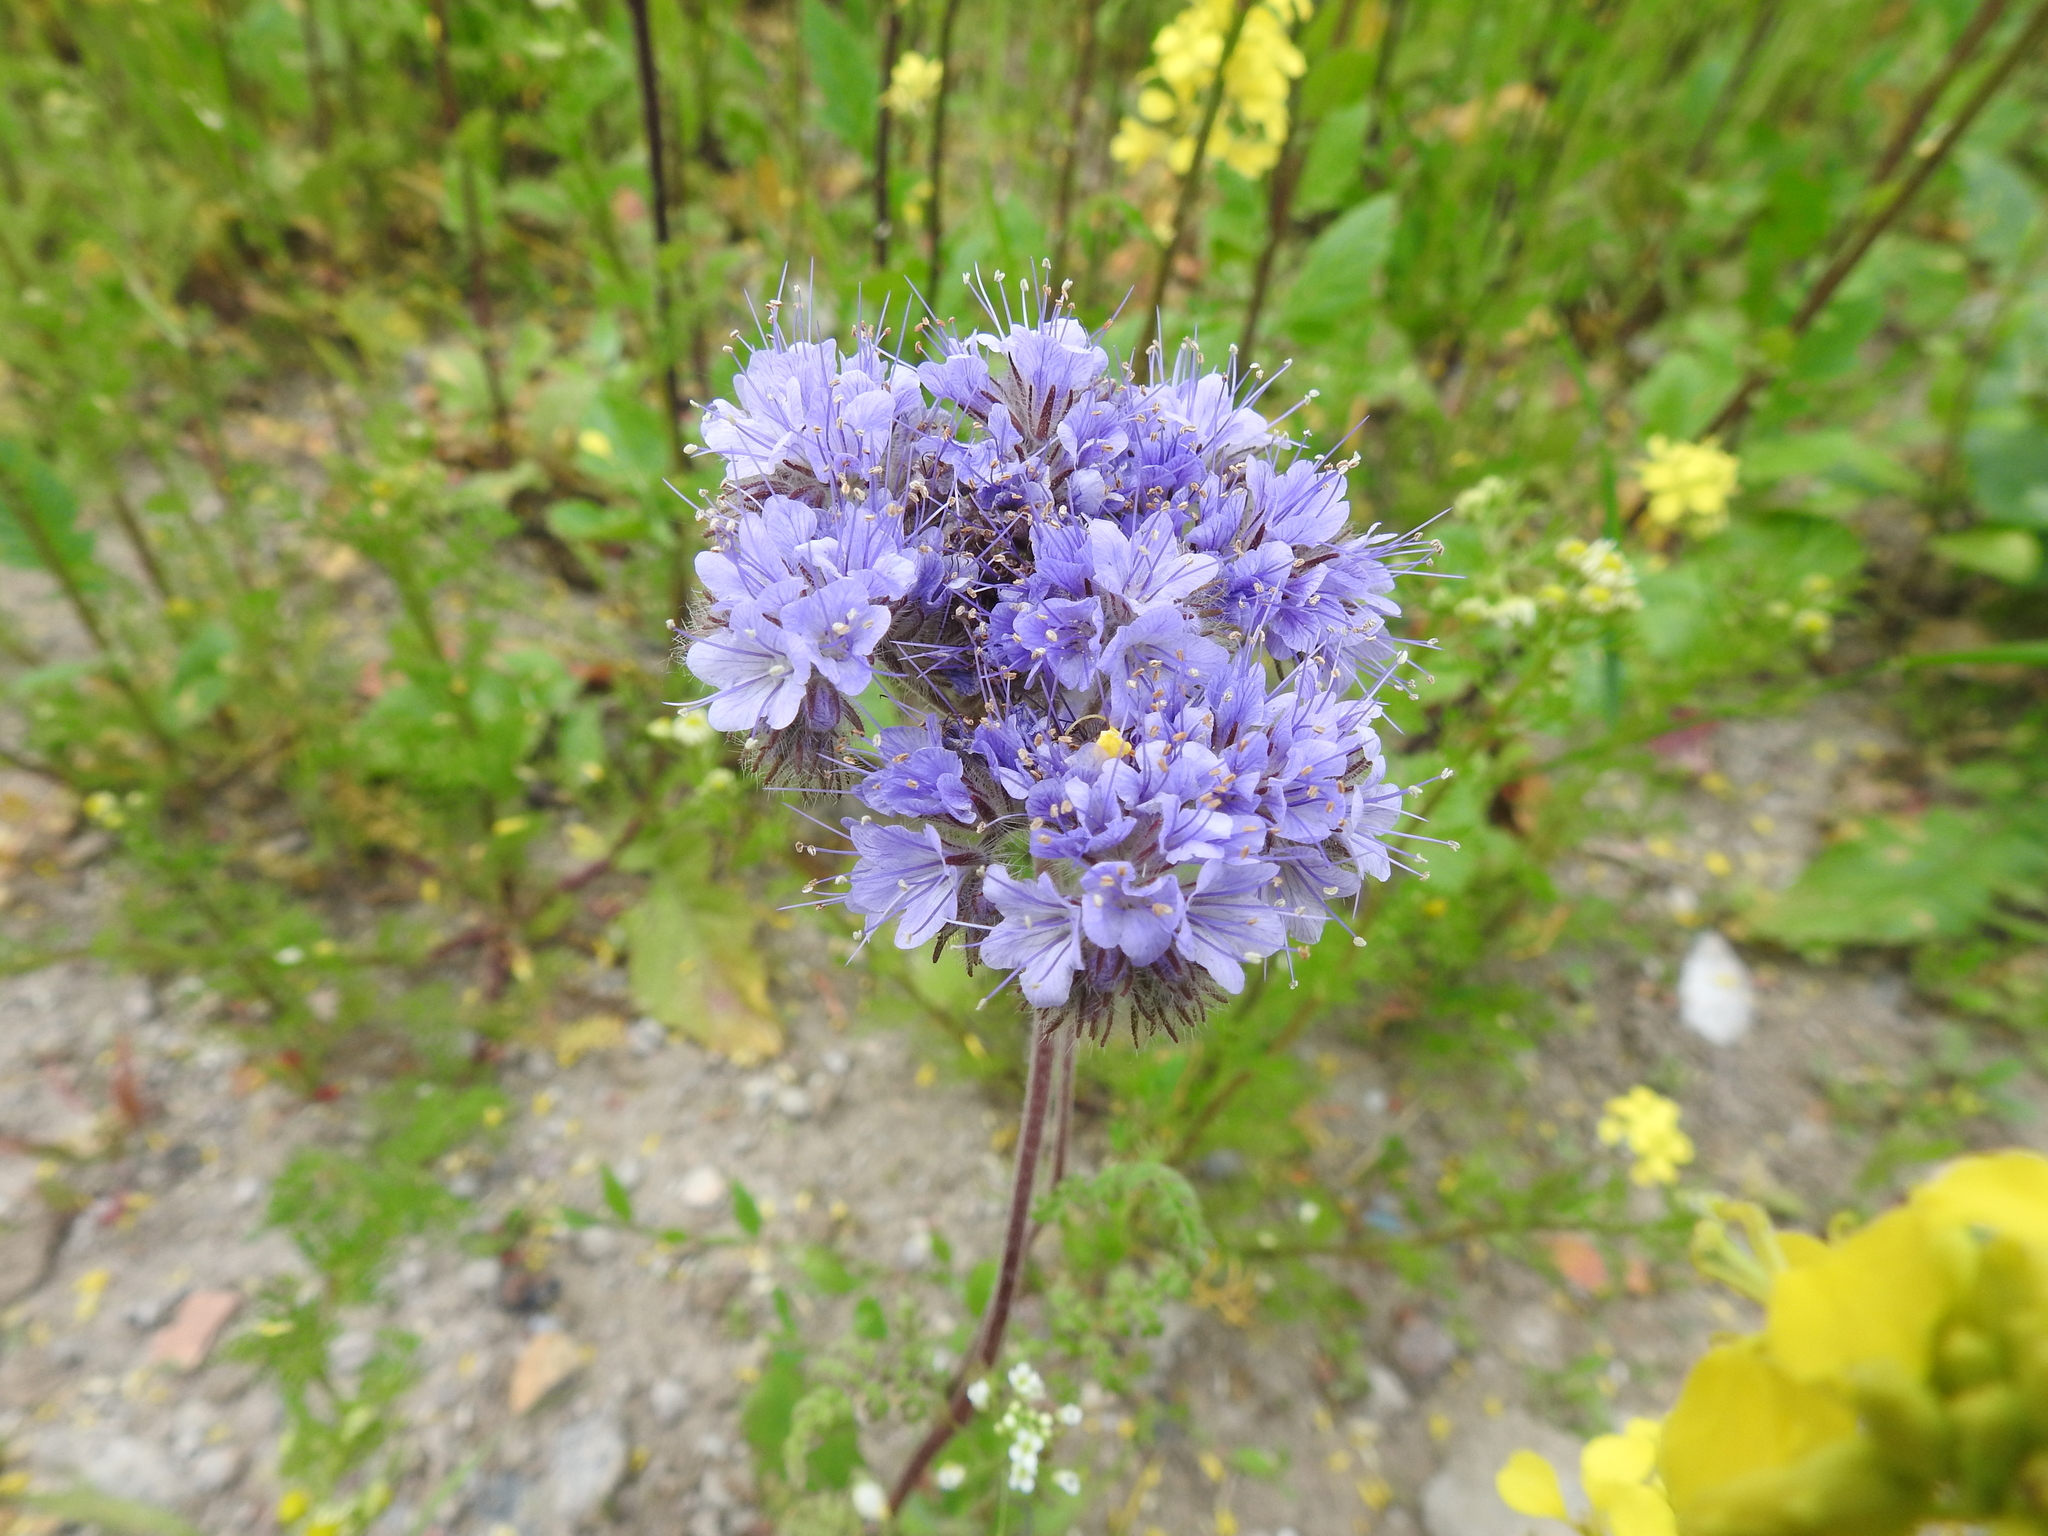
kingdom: Plantae
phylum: Tracheophyta
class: Magnoliopsida
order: Boraginales
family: Hydrophyllaceae
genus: Phacelia
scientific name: Phacelia tanacetifolia
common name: Phacelia
